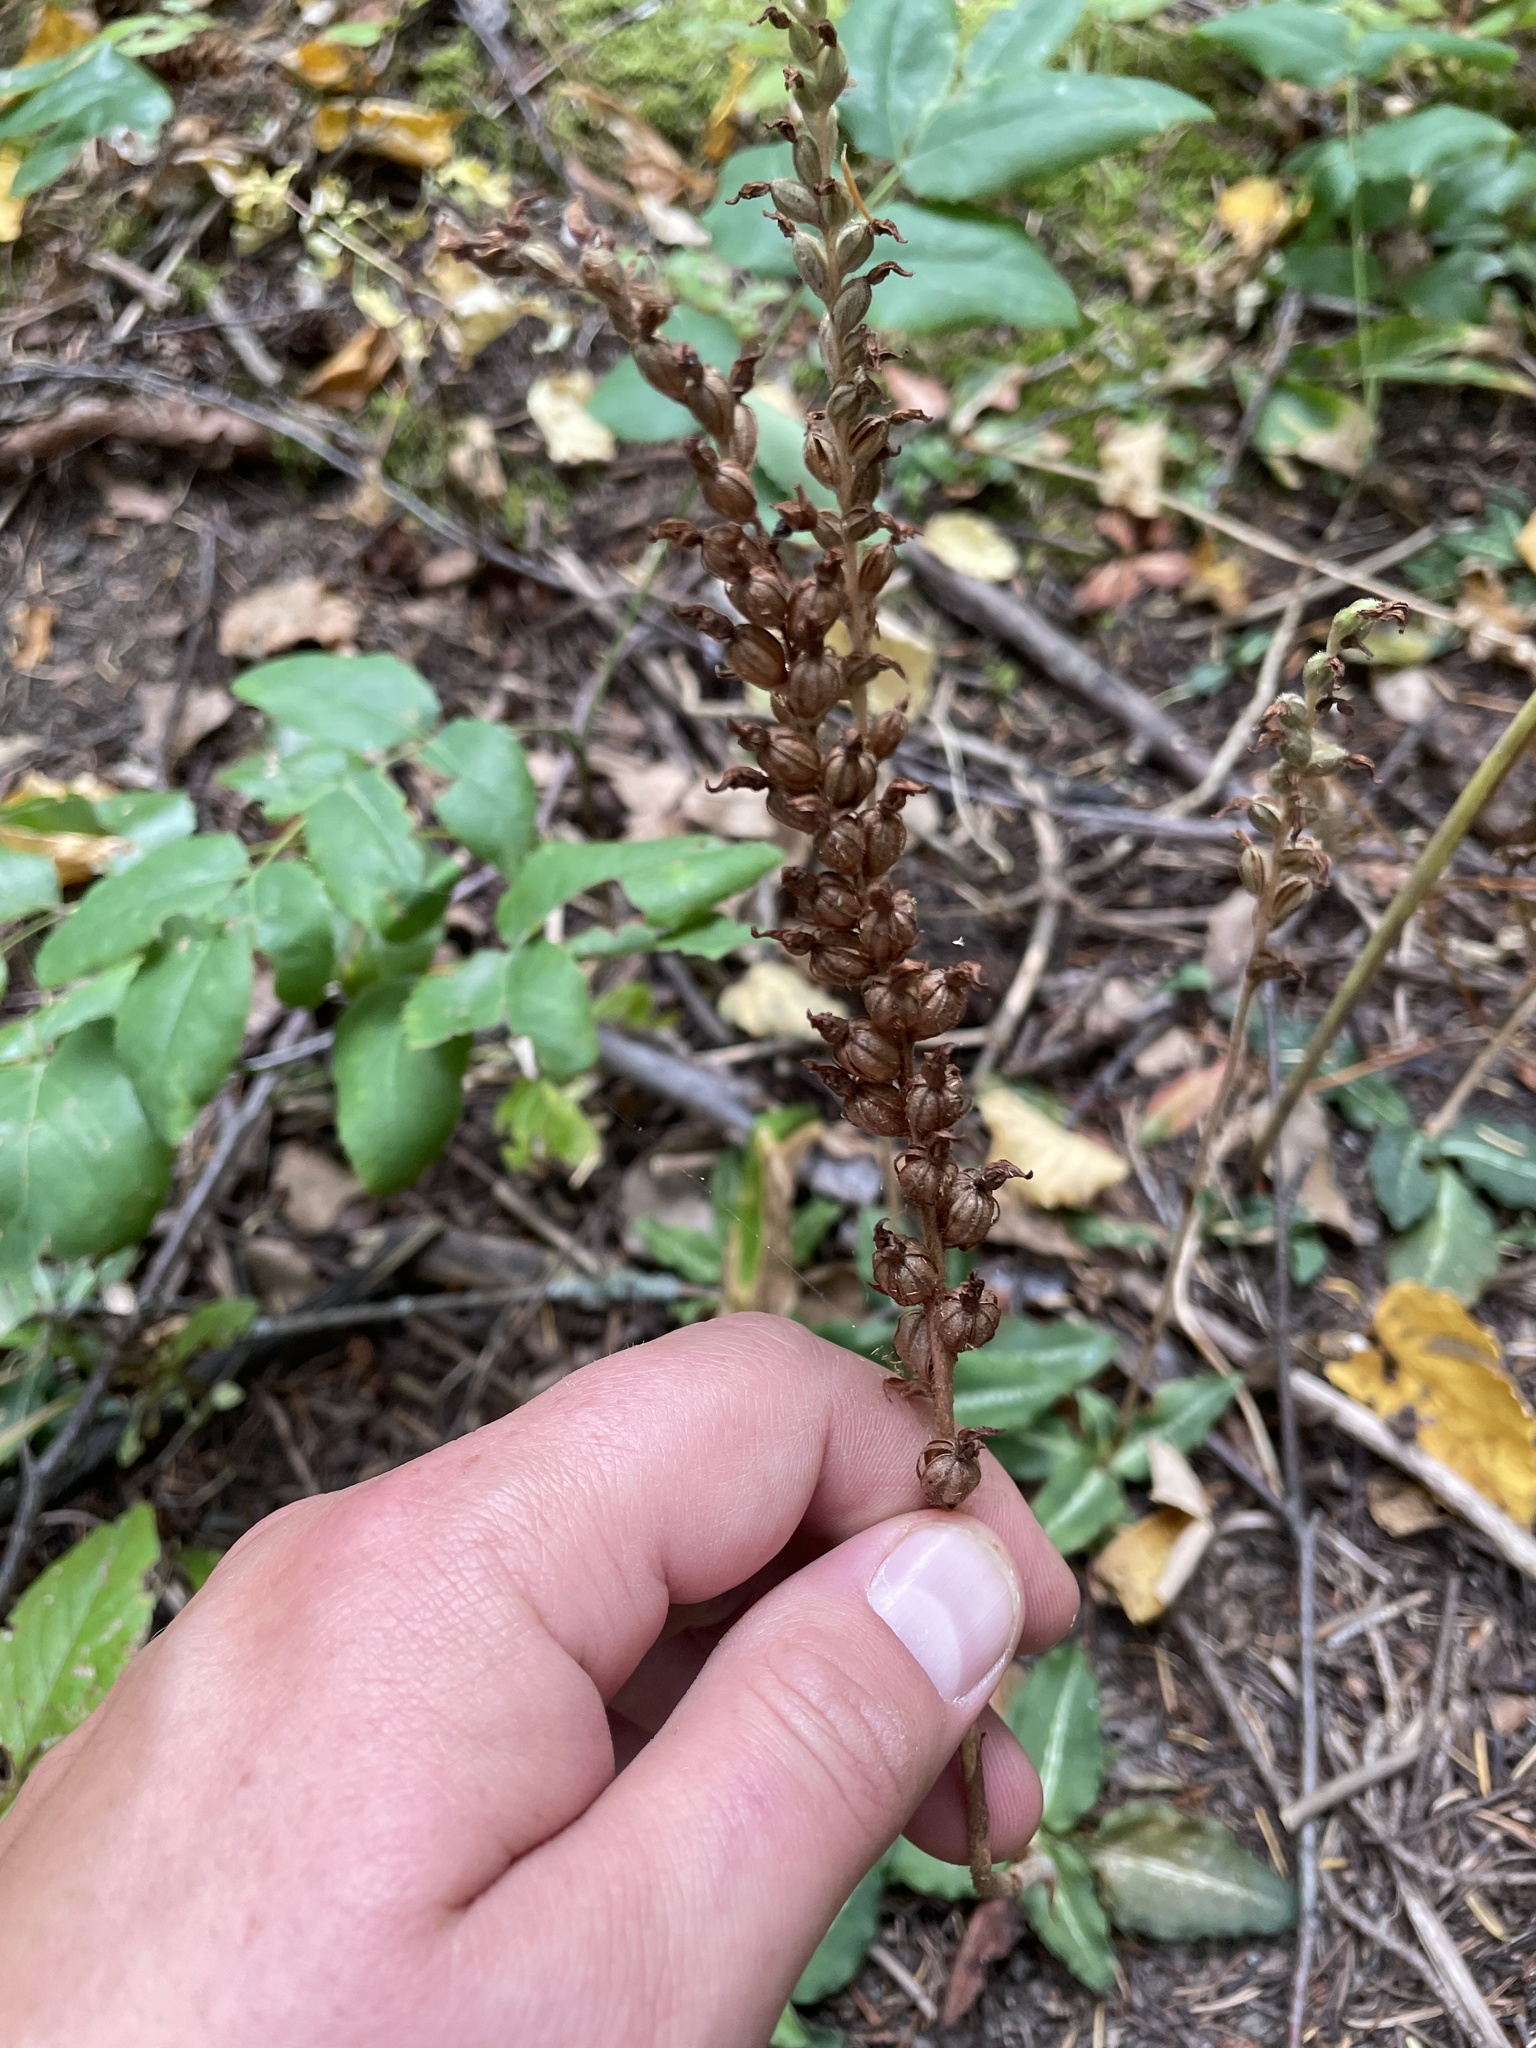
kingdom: Plantae
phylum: Tracheophyta
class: Liliopsida
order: Asparagales
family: Orchidaceae
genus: Goodyera
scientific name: Goodyera oblongifolia
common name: Giant rattlesnake-plantain
